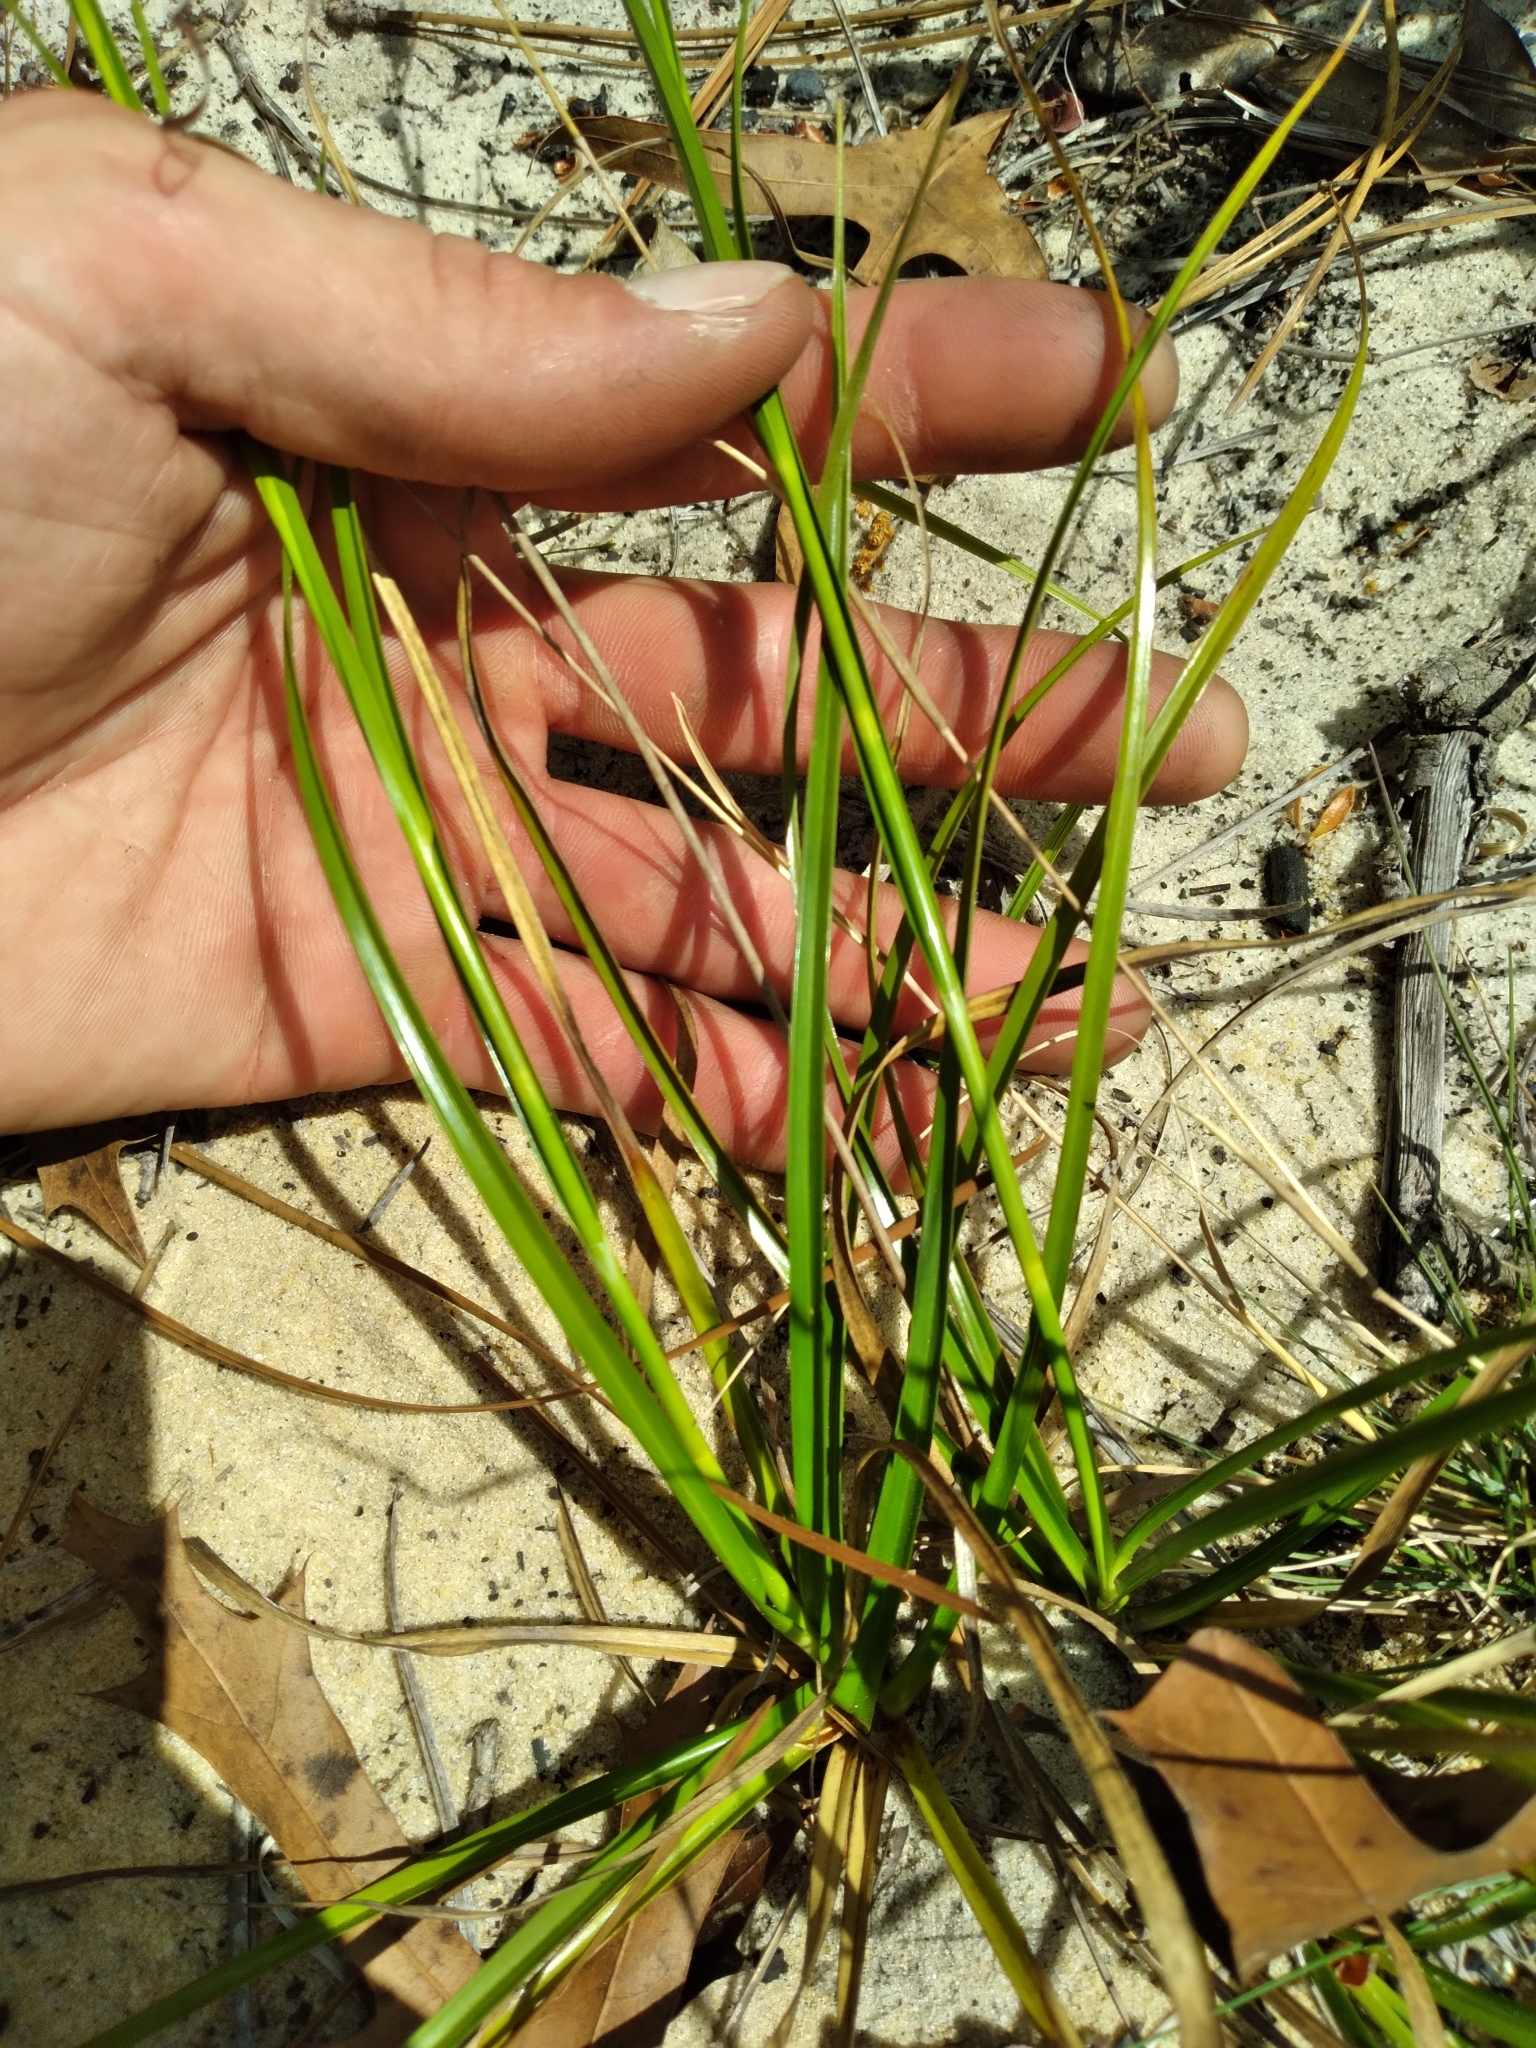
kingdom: Plantae
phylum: Tracheophyta
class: Liliopsida
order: Poales
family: Cyperaceae
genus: Rhynchospora
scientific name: Rhynchospora megalocarpa
